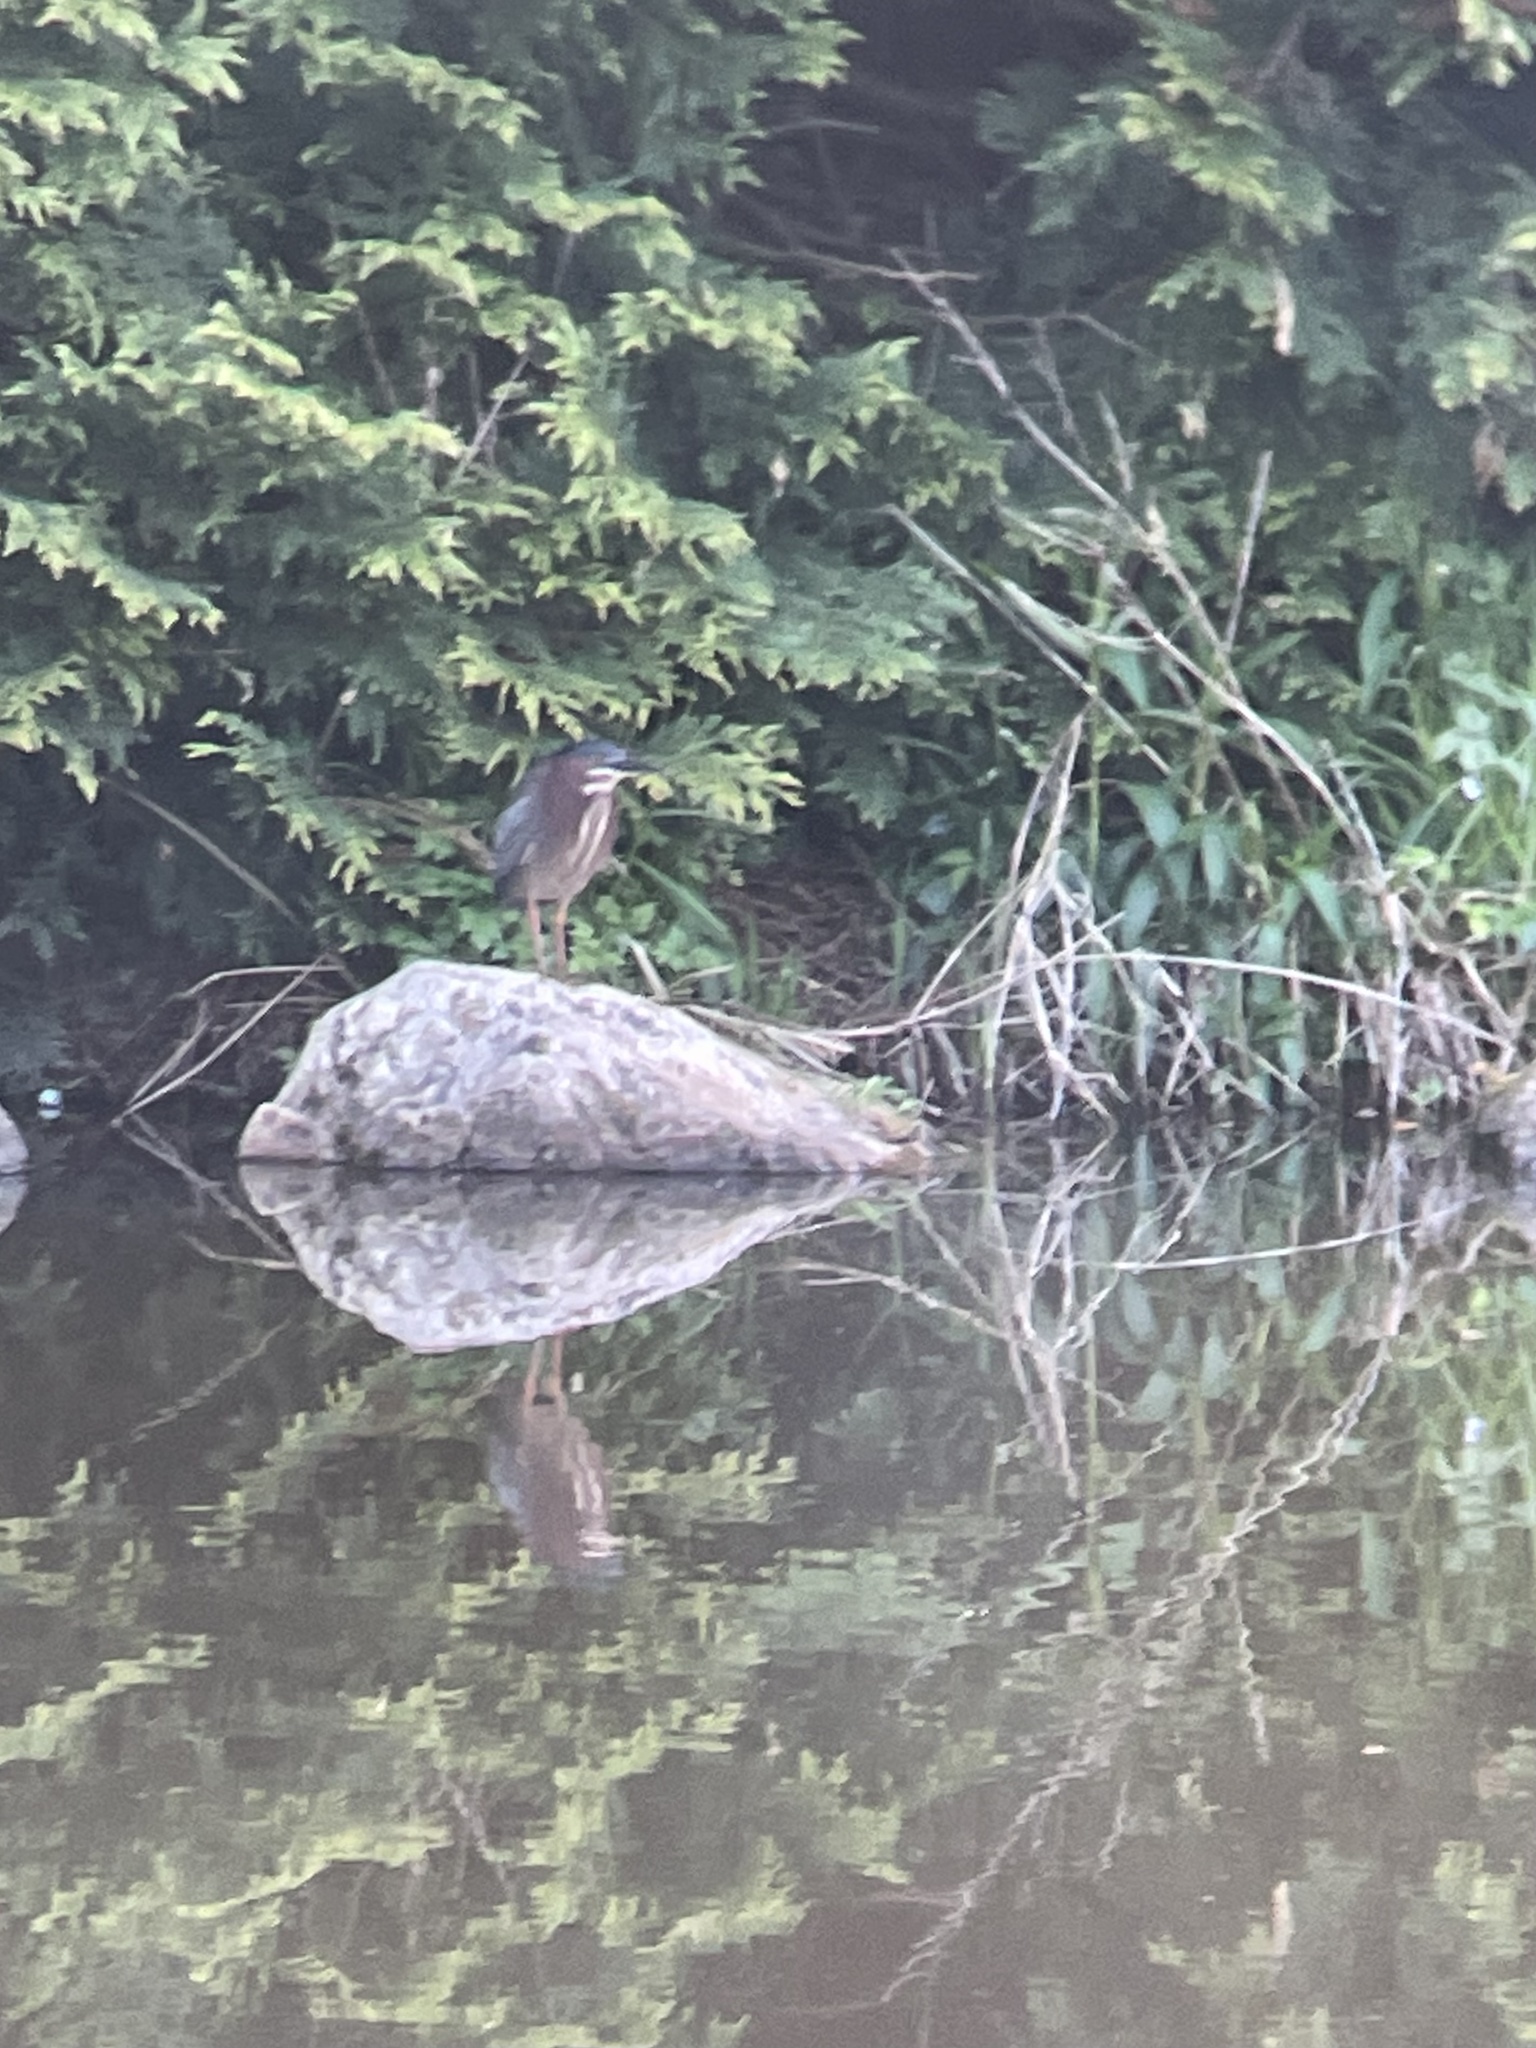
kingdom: Animalia
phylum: Chordata
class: Aves
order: Pelecaniformes
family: Ardeidae
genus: Butorides
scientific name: Butorides virescens
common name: Green heron
